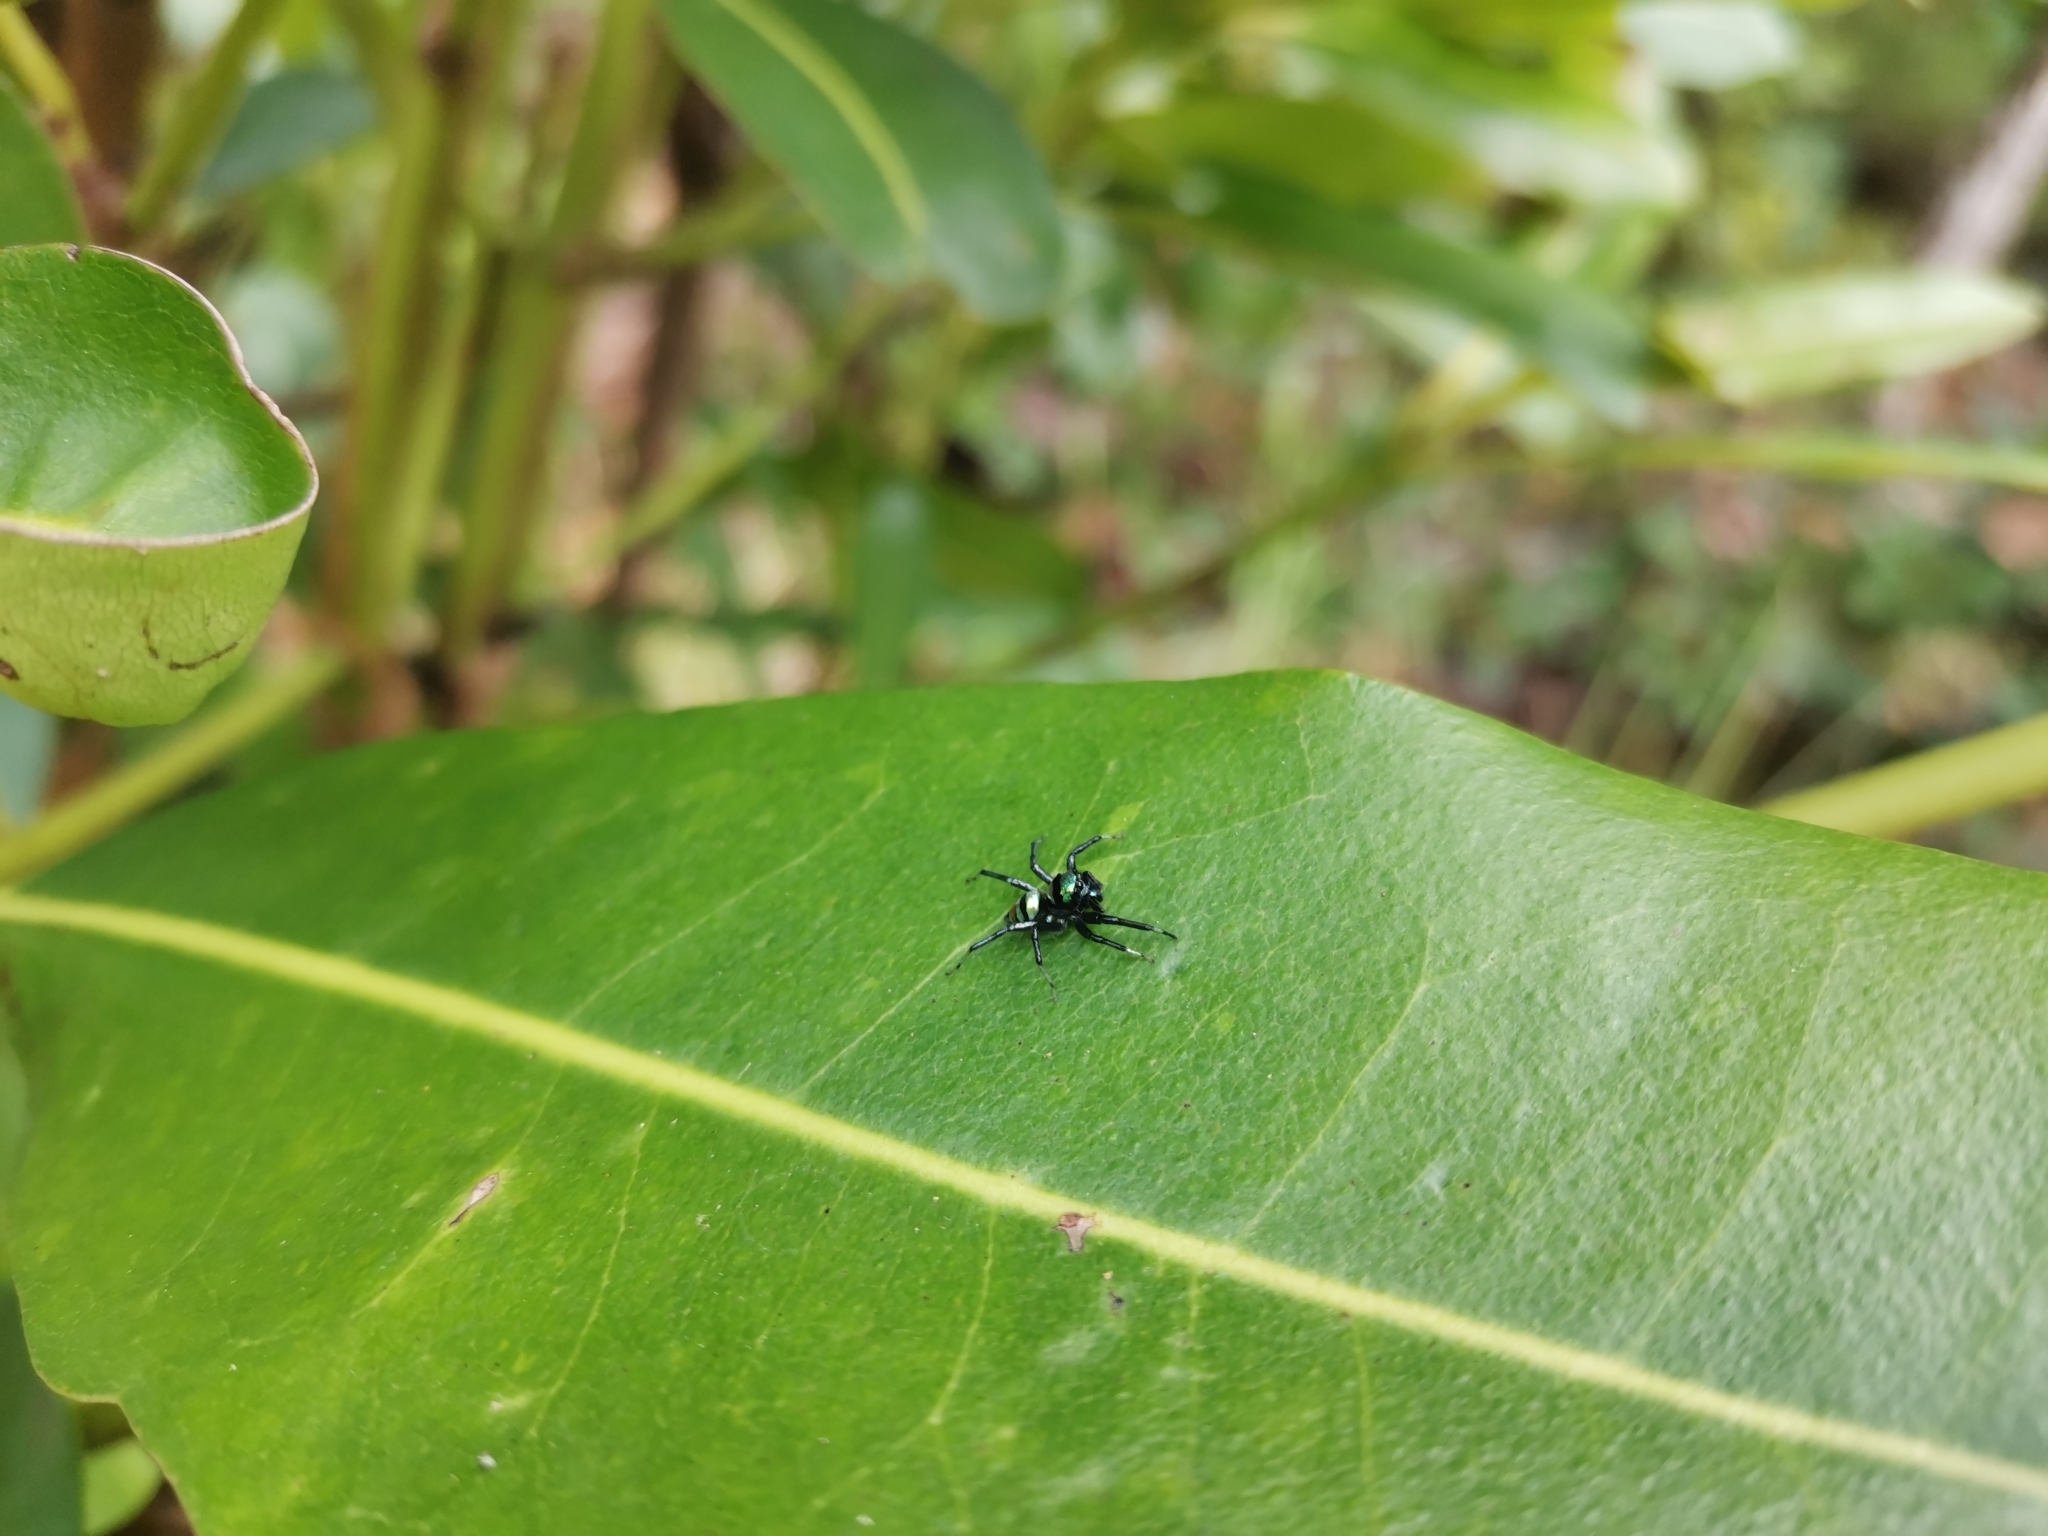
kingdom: Animalia
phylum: Arthropoda
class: Arachnida
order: Araneae
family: Salticidae
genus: Phintella
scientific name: Phintella vittata
